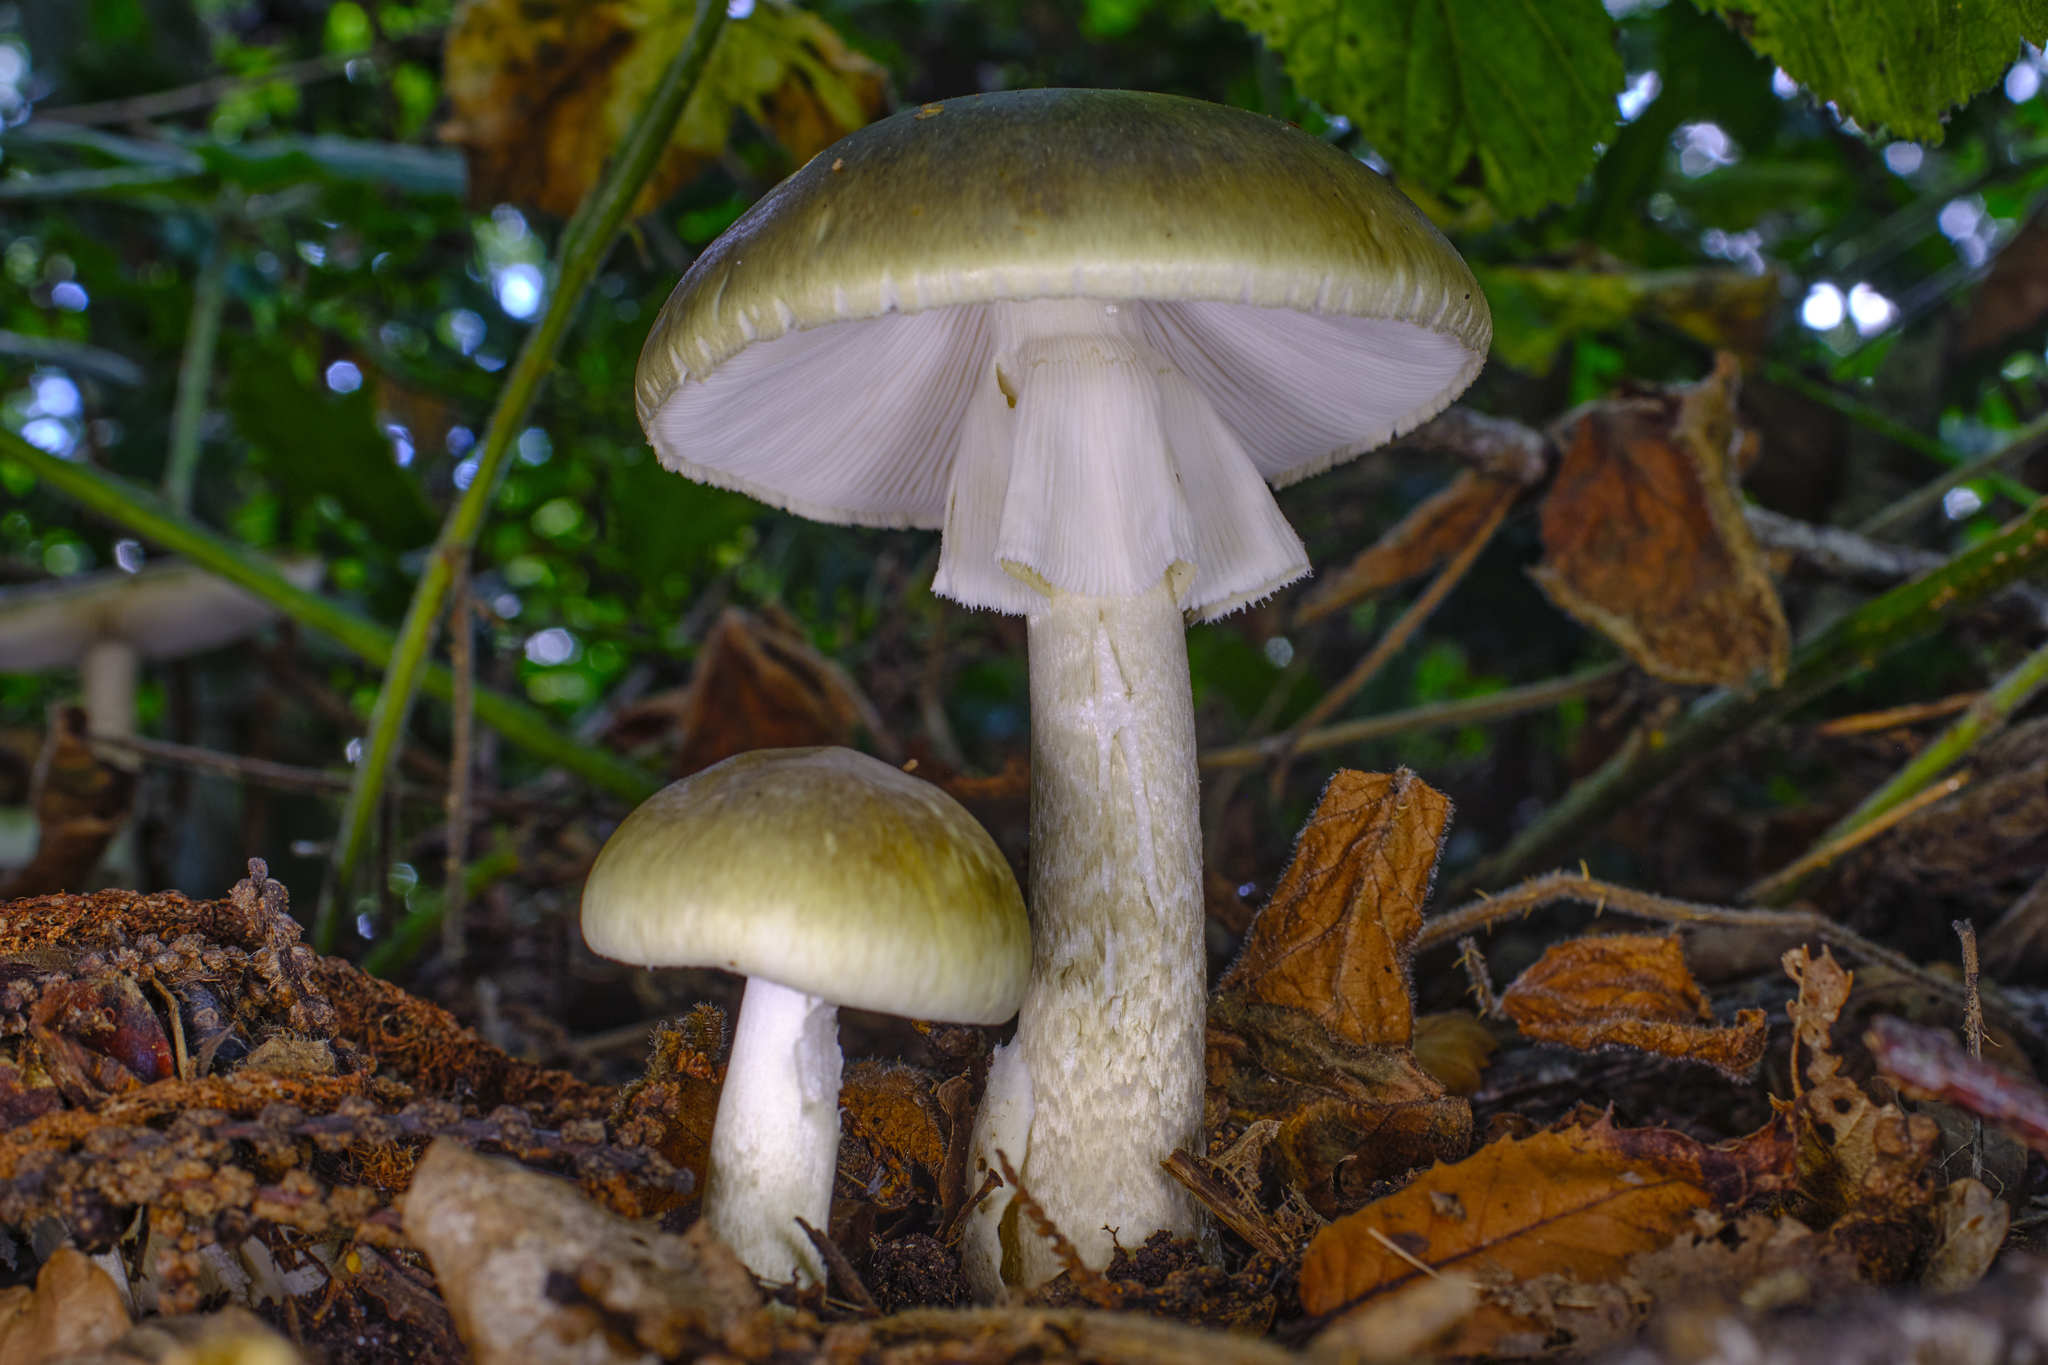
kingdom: Fungi
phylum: Basidiomycota
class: Agaricomycetes
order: Agaricales
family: Amanitaceae
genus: Amanita
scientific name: Amanita phalloides
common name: Death cap
